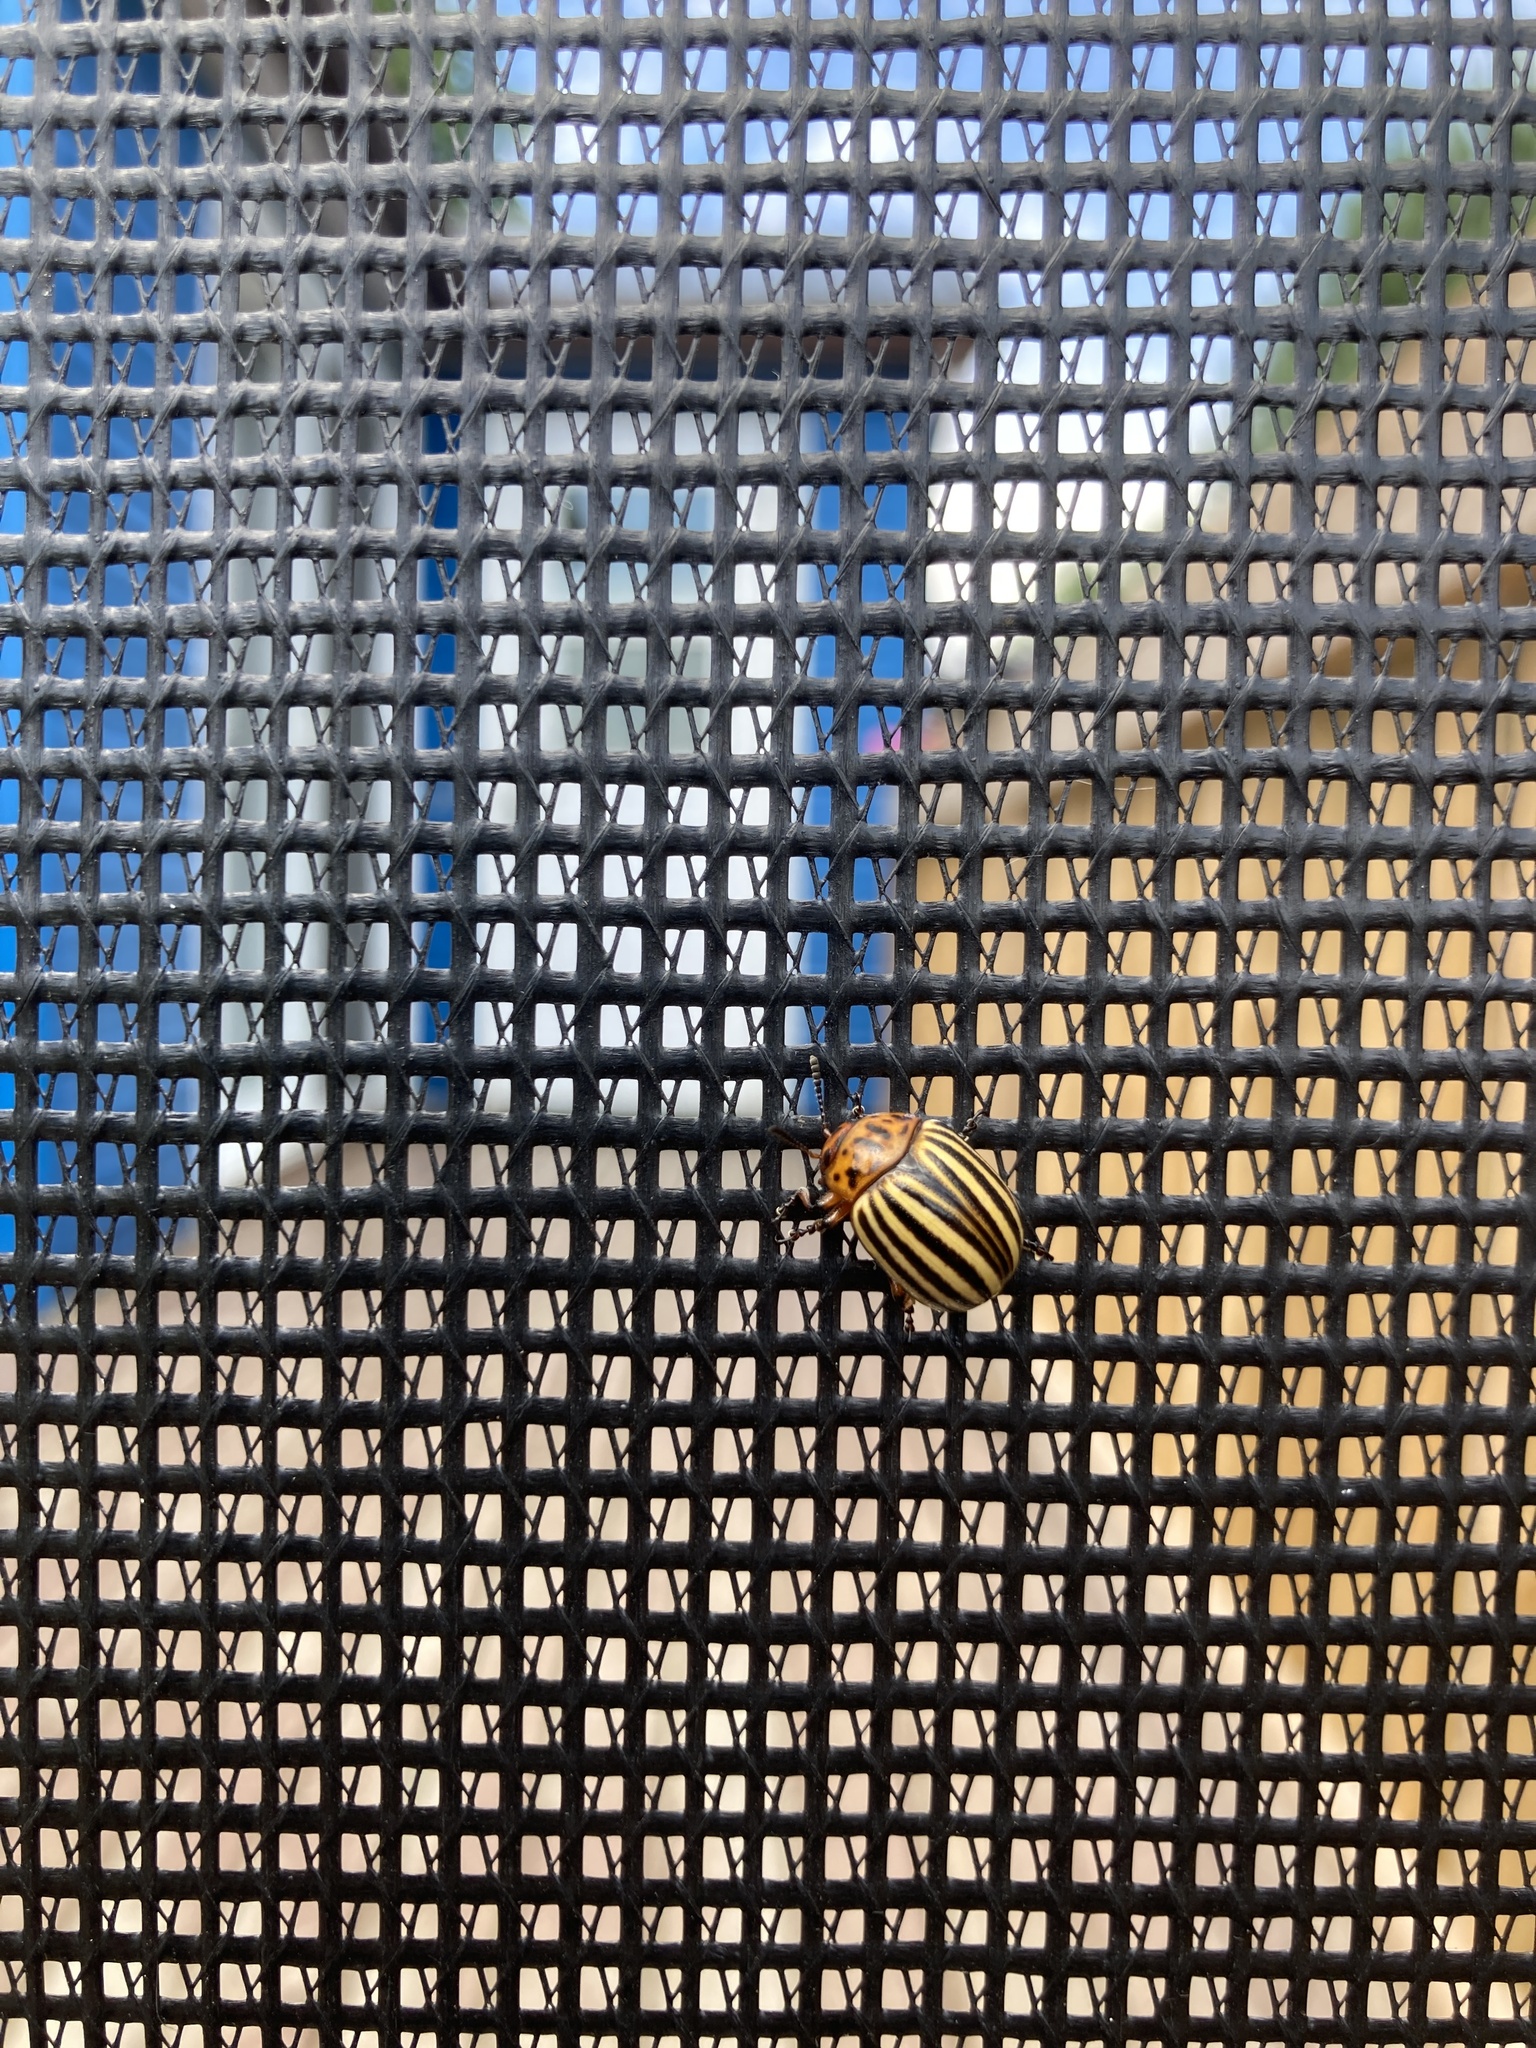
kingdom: Animalia
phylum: Arthropoda
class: Insecta
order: Coleoptera
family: Chrysomelidae
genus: Leptinotarsa
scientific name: Leptinotarsa decemlineata
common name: Colorado potato beetle
